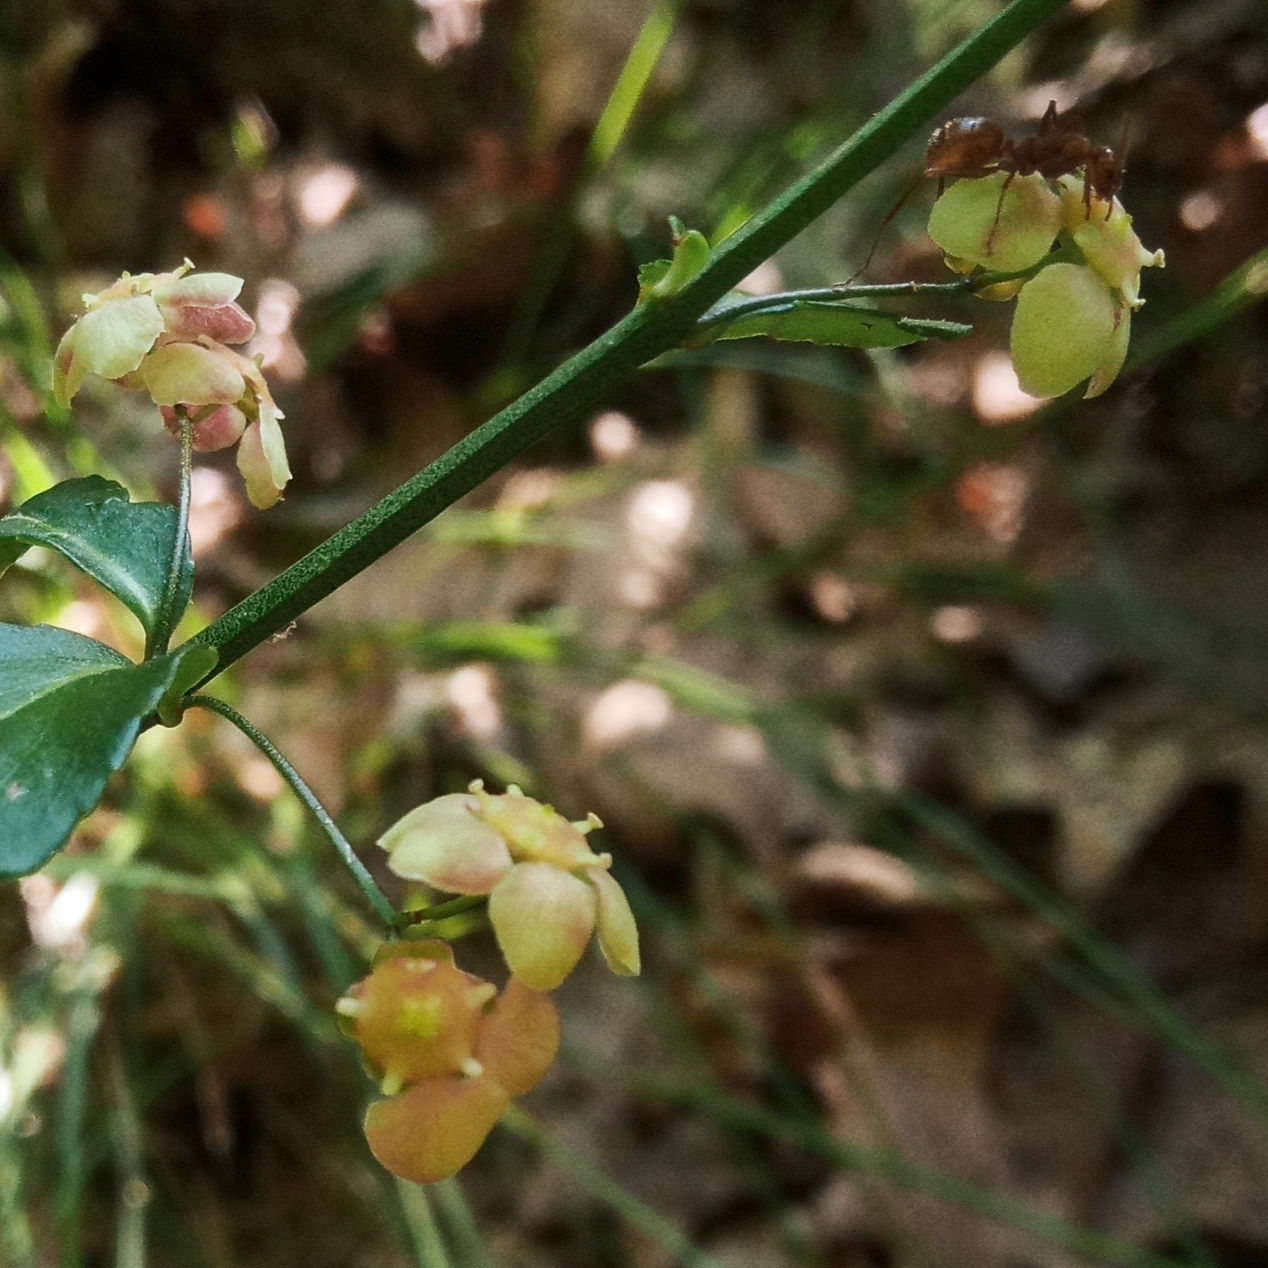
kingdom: Plantae
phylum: Tracheophyta
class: Magnoliopsida
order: Celastrales
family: Celastraceae
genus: Euonymus
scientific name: Euonymus americanus
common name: Bursting-heart
